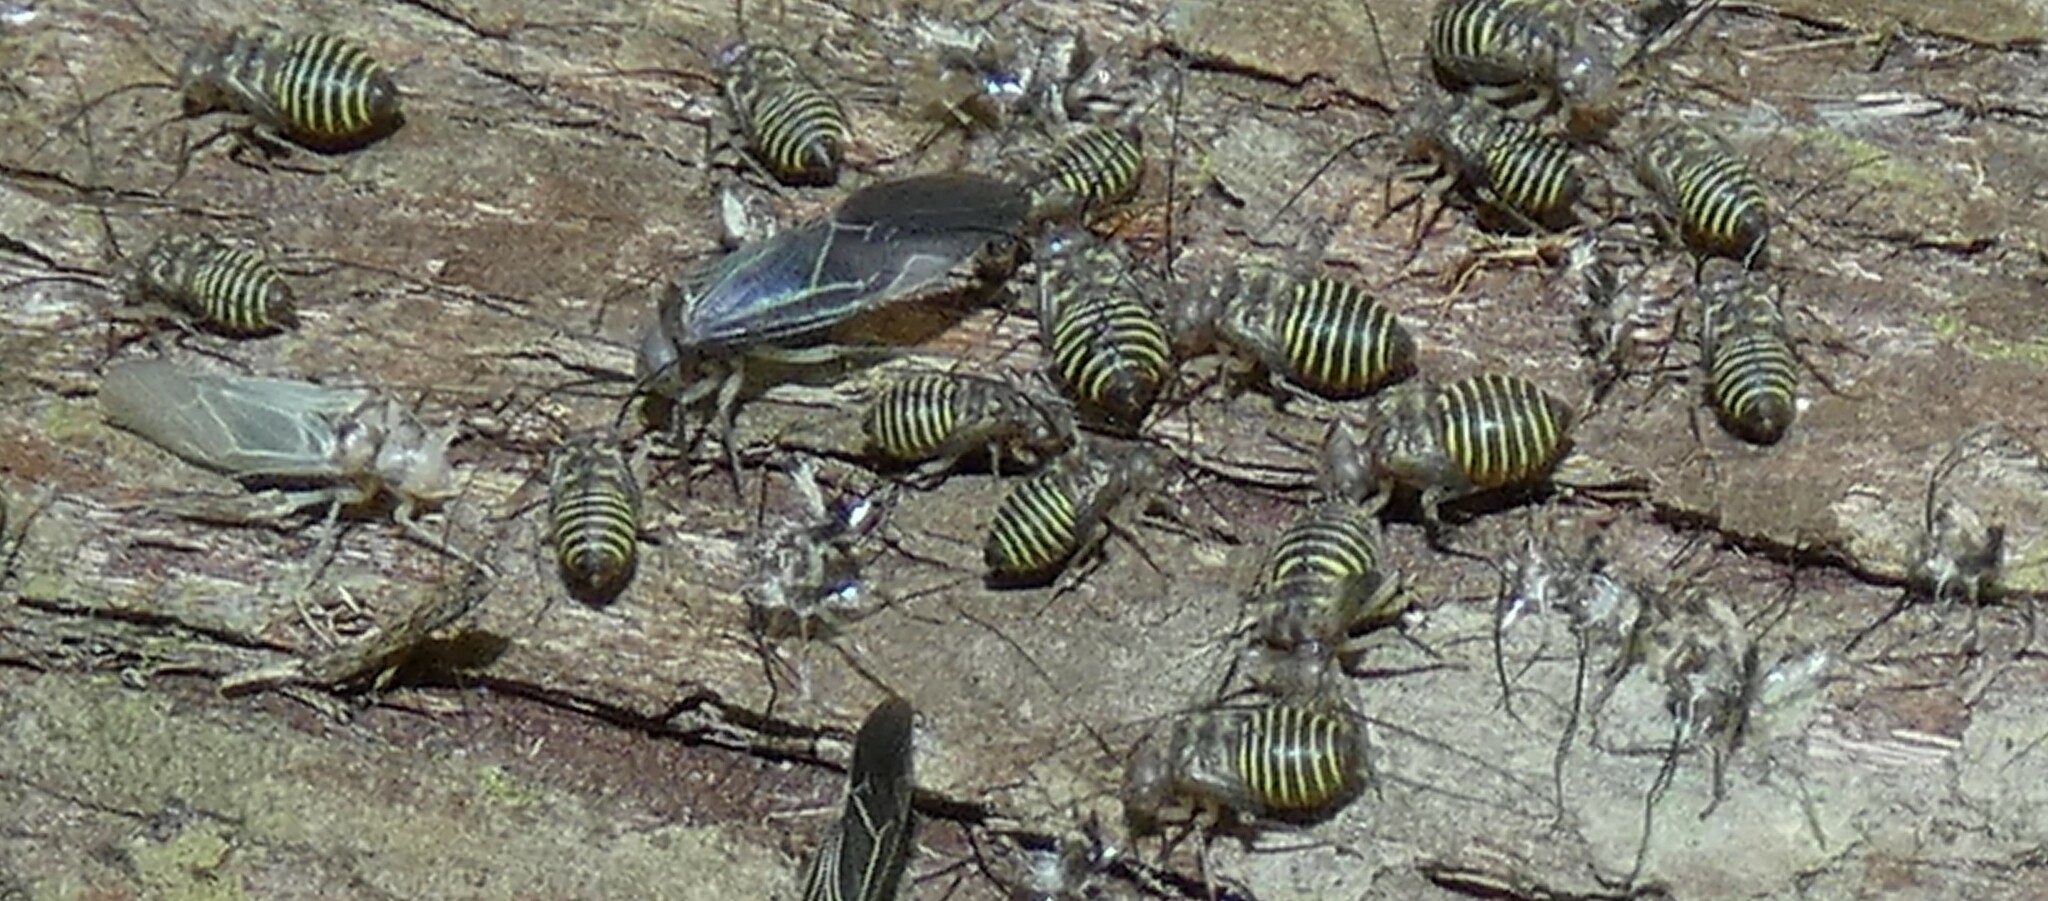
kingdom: Animalia
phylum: Arthropoda
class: Insecta
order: Psocodea
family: Psocidae
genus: Cerastipsocus
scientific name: Cerastipsocus venosus
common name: Tree cattle
